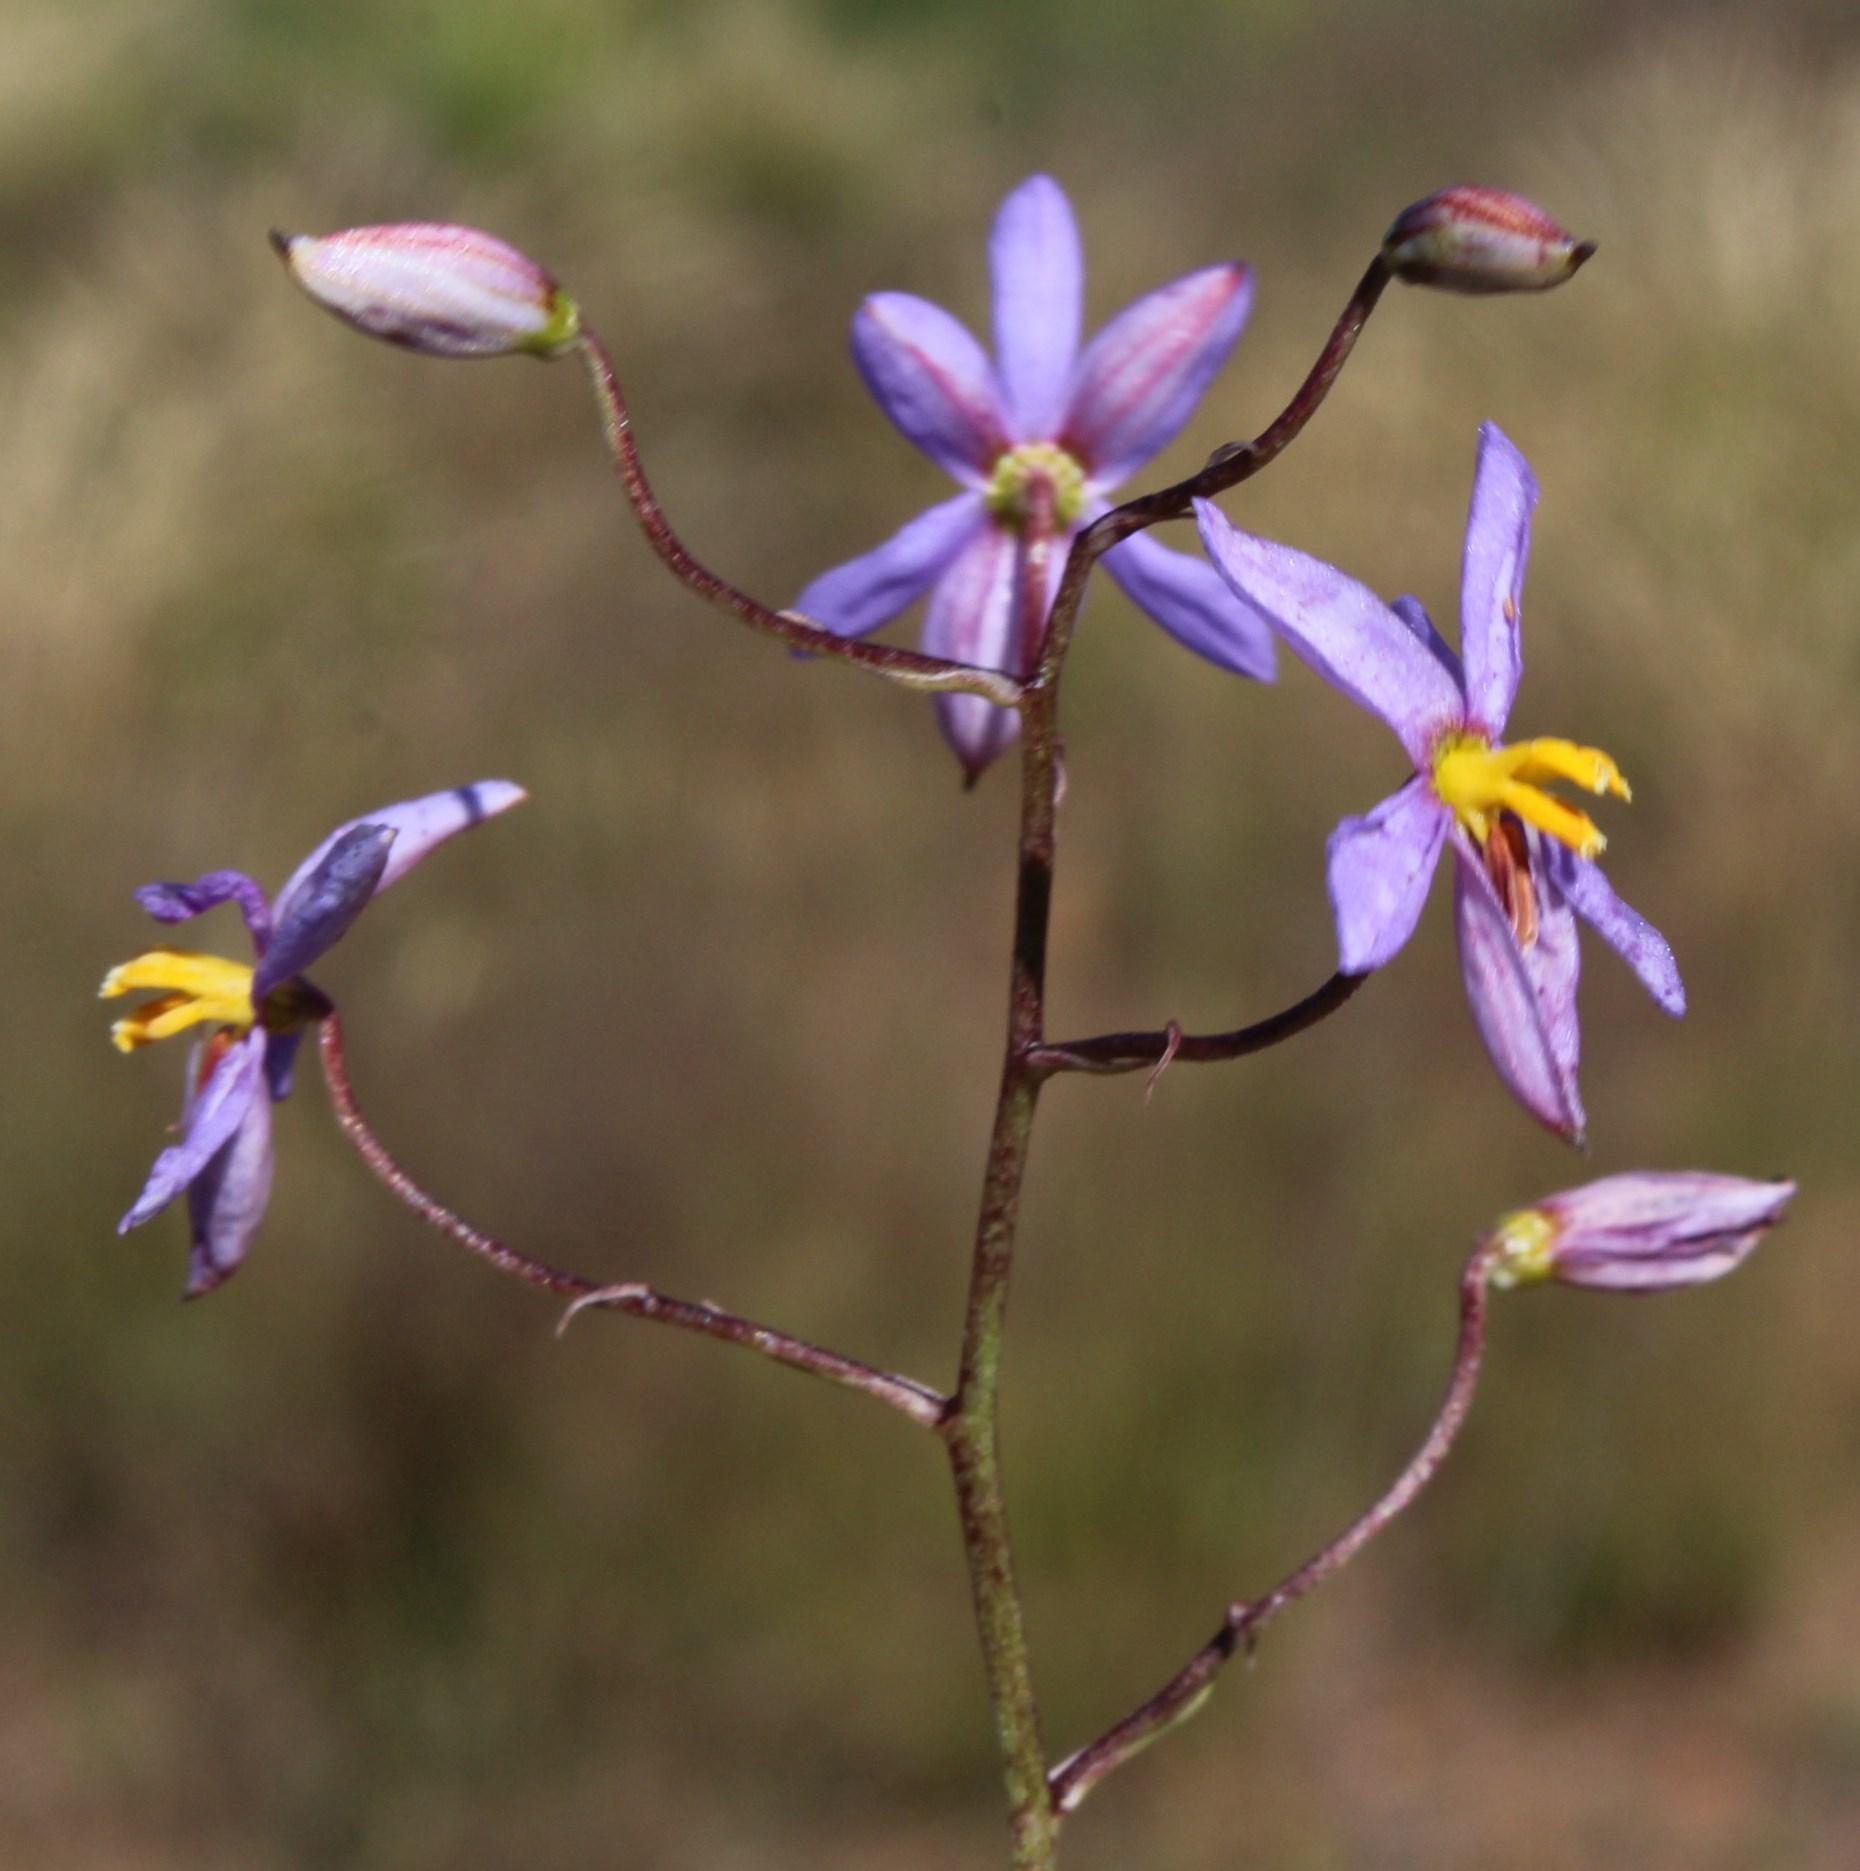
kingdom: Plantae
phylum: Tracheophyta
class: Liliopsida
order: Asparagales
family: Tecophilaeaceae
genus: Cyanella
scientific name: Cyanella hyacinthoides
